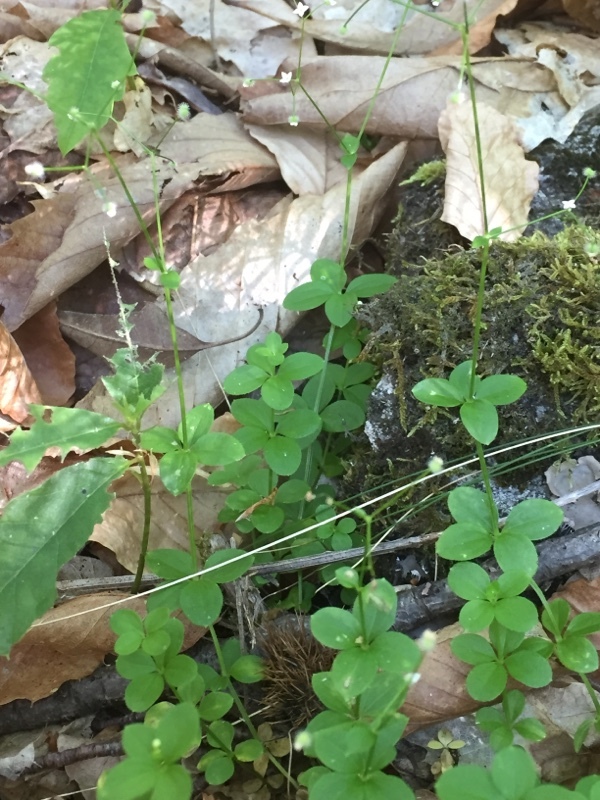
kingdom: Plantae
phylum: Tracheophyta
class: Magnoliopsida
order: Gentianales
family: Rubiaceae
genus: Galium
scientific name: Galium rotundifolium
